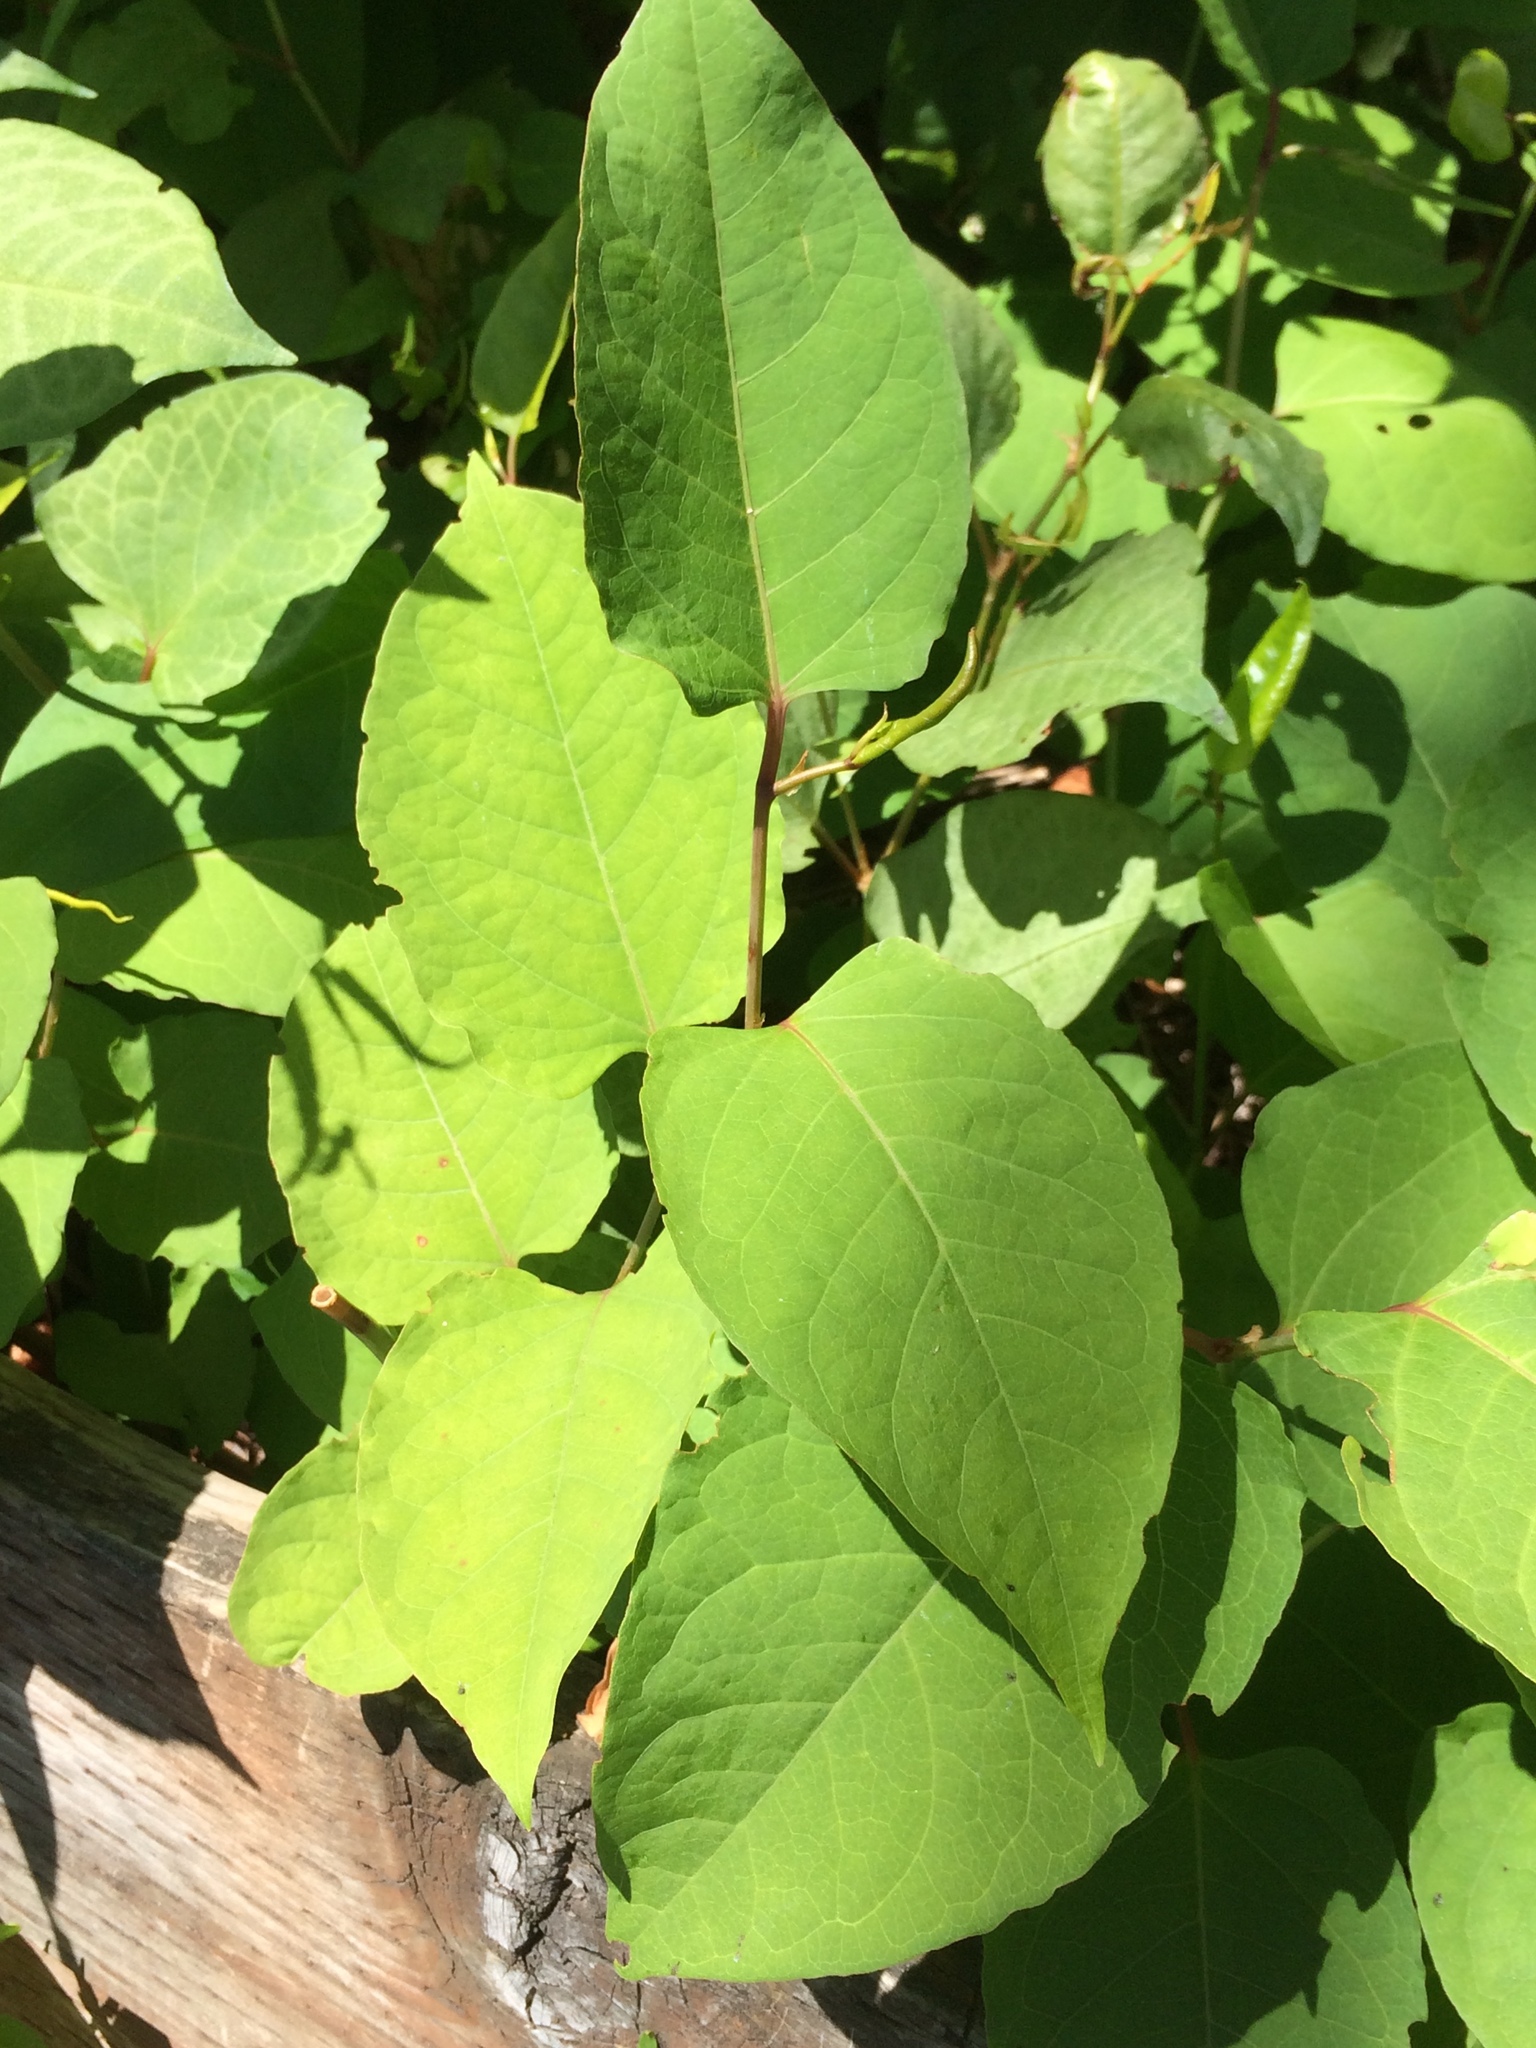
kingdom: Plantae
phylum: Tracheophyta
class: Magnoliopsida
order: Caryophyllales
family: Polygonaceae
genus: Reynoutria
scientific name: Reynoutria japonica
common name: Japanese knotweed
